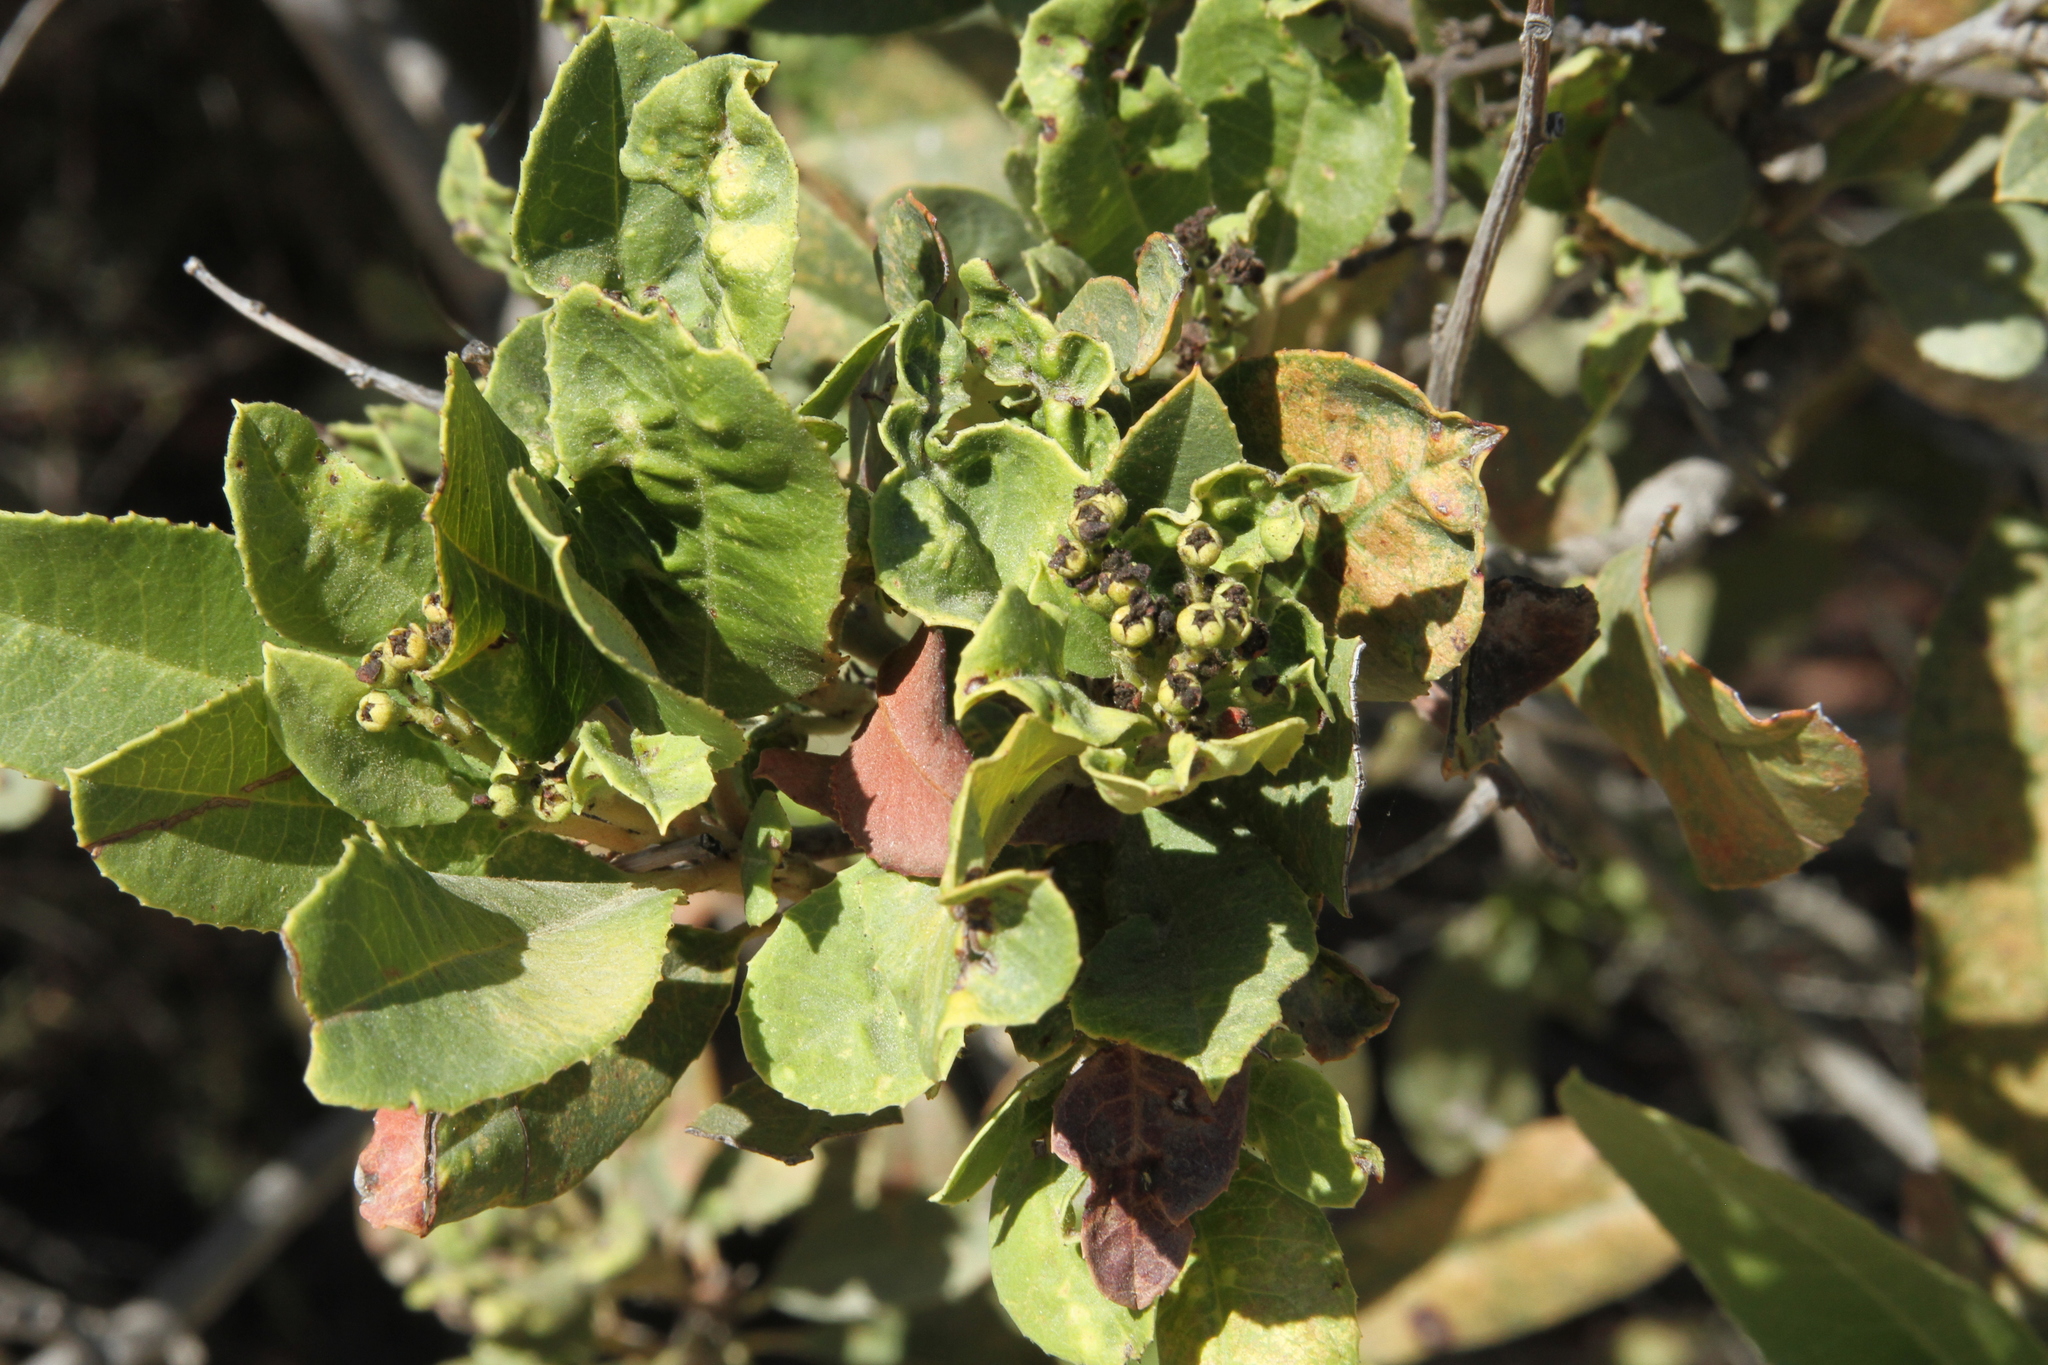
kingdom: Plantae
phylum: Tracheophyta
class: Magnoliopsida
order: Rosales
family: Rosaceae
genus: Heteromeles
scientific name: Heteromeles arbutifolia
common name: California-holly
